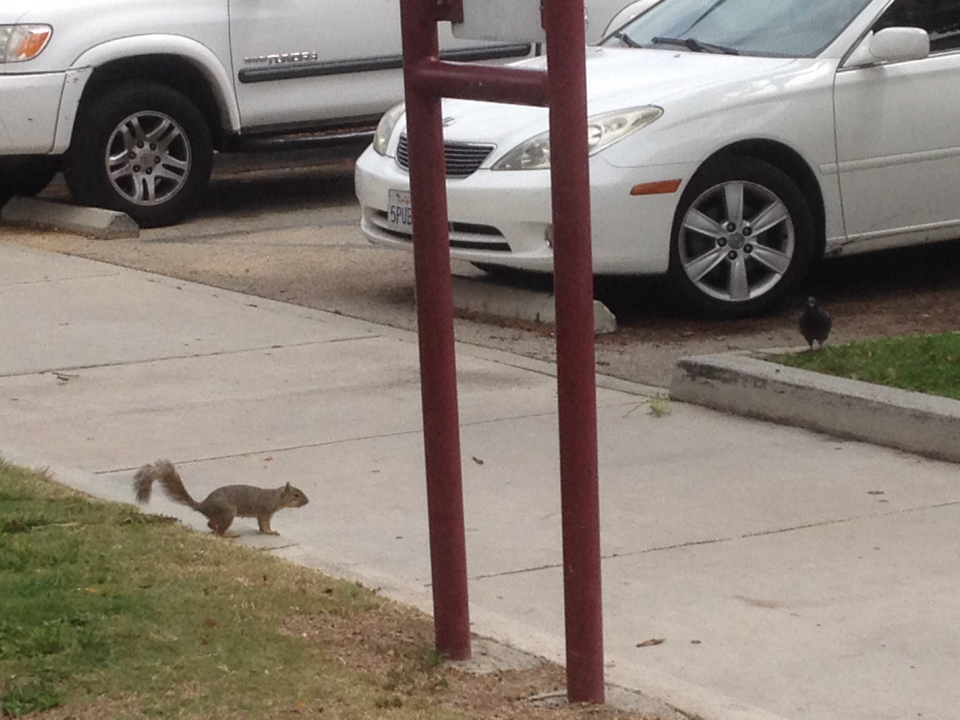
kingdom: Animalia
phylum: Chordata
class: Mammalia
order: Rodentia
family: Sciuridae
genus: Sciurus
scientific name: Sciurus niger
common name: Fox squirrel
